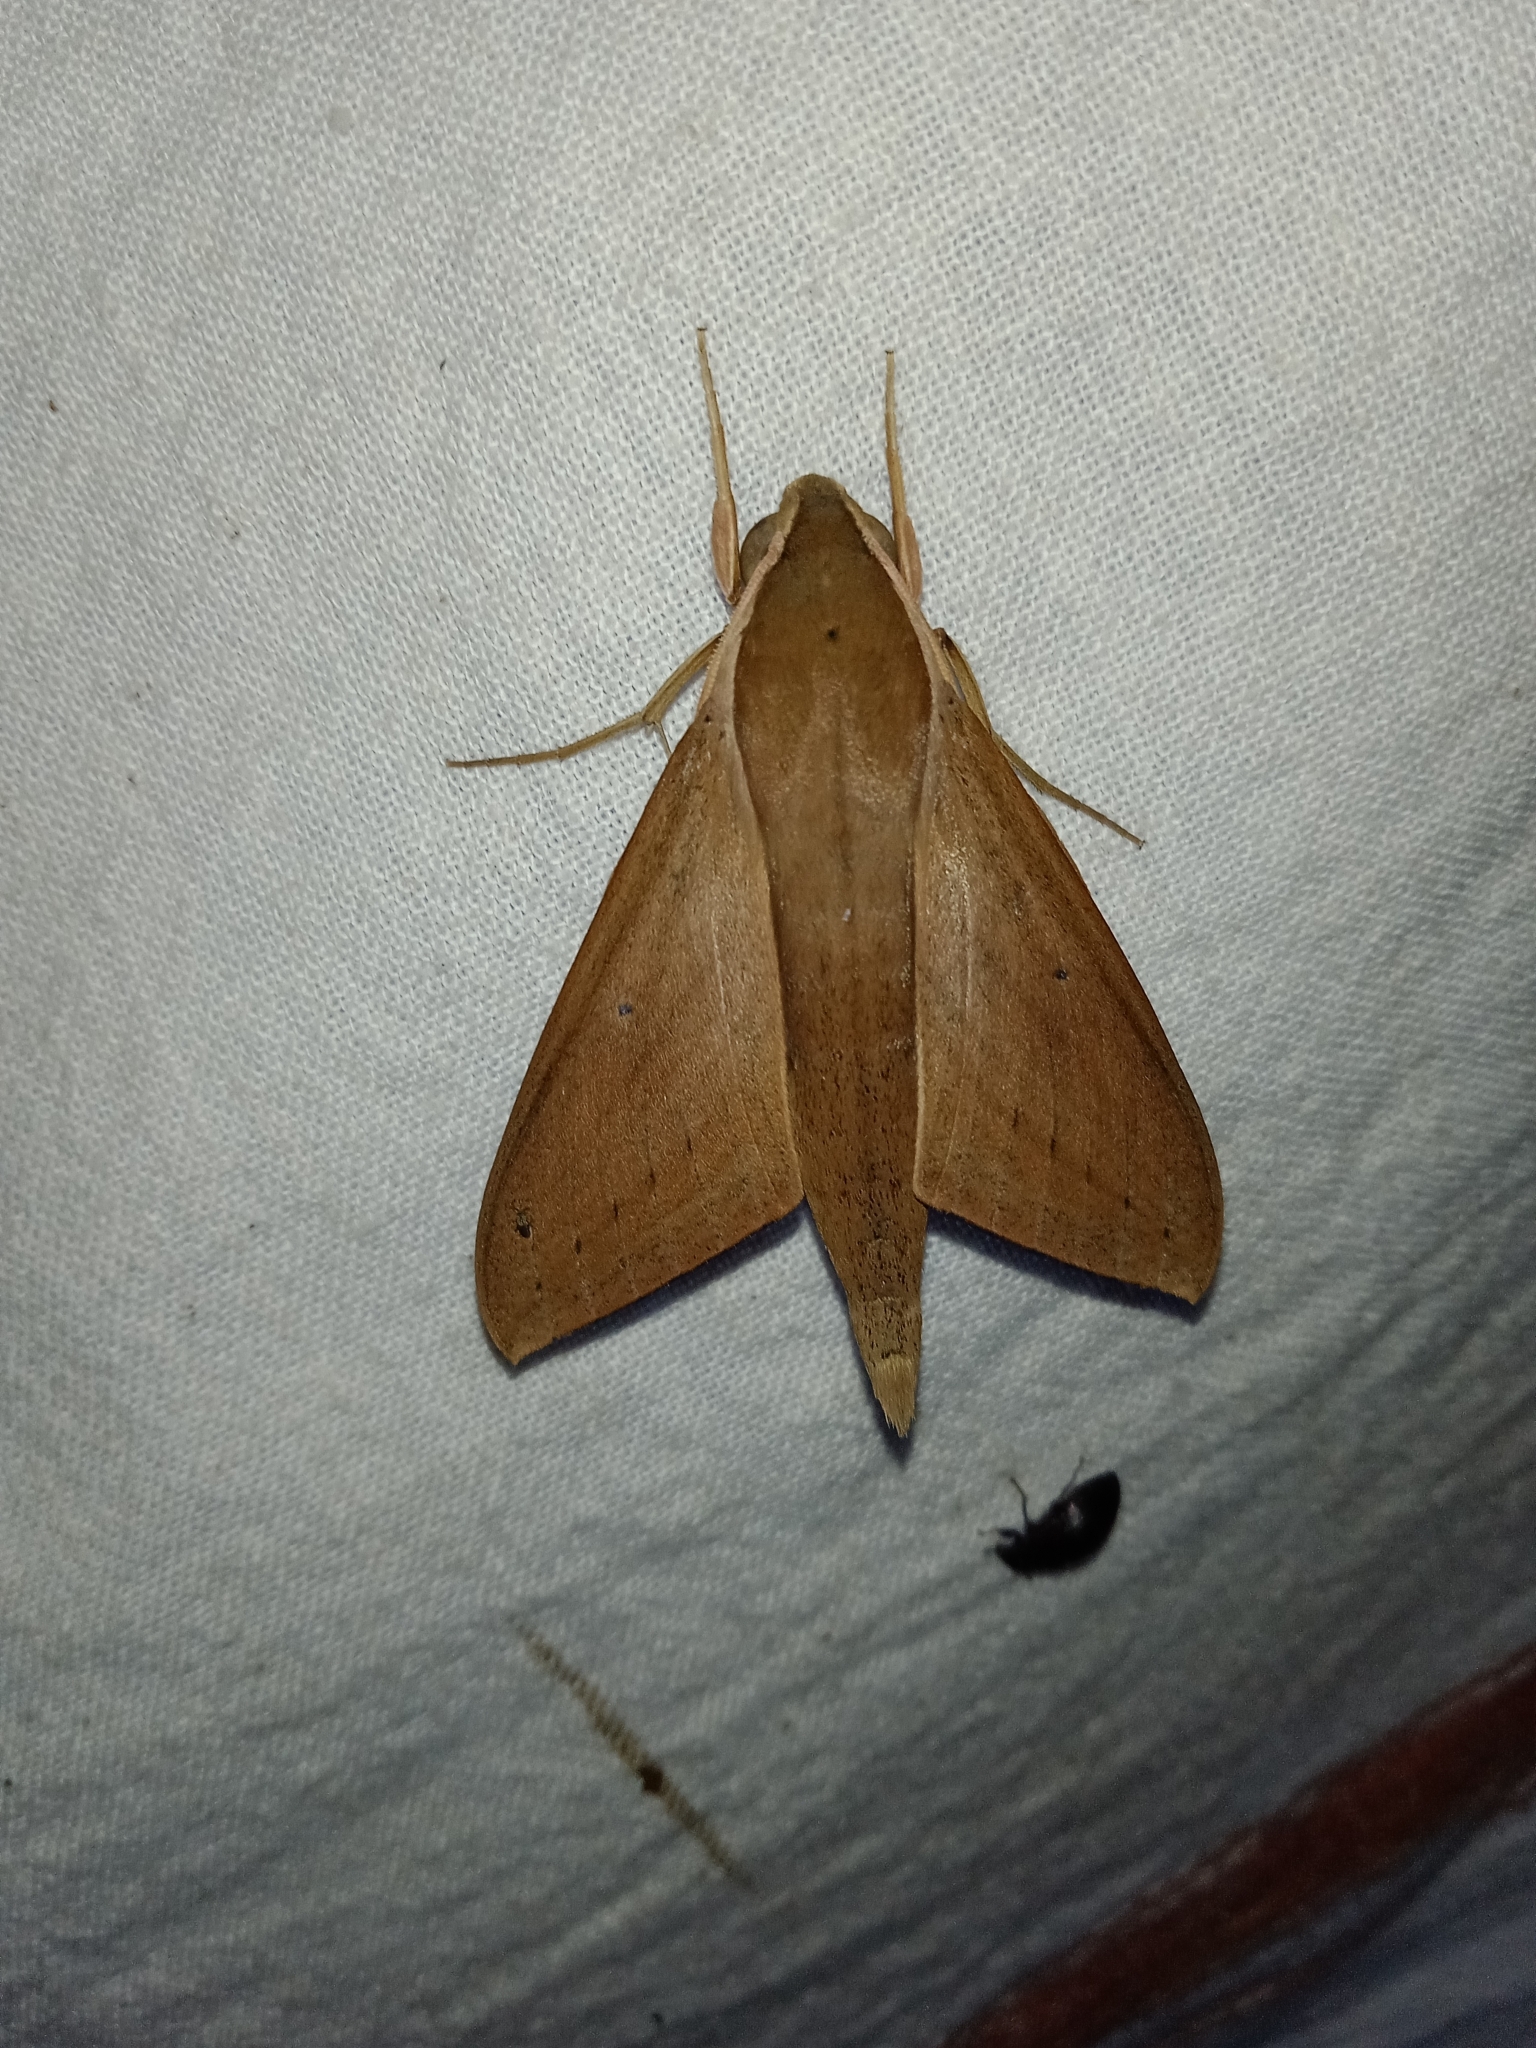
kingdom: Animalia
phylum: Arthropoda
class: Insecta
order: Lepidoptera
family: Sphingidae
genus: Theretra
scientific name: Theretra rhesus
